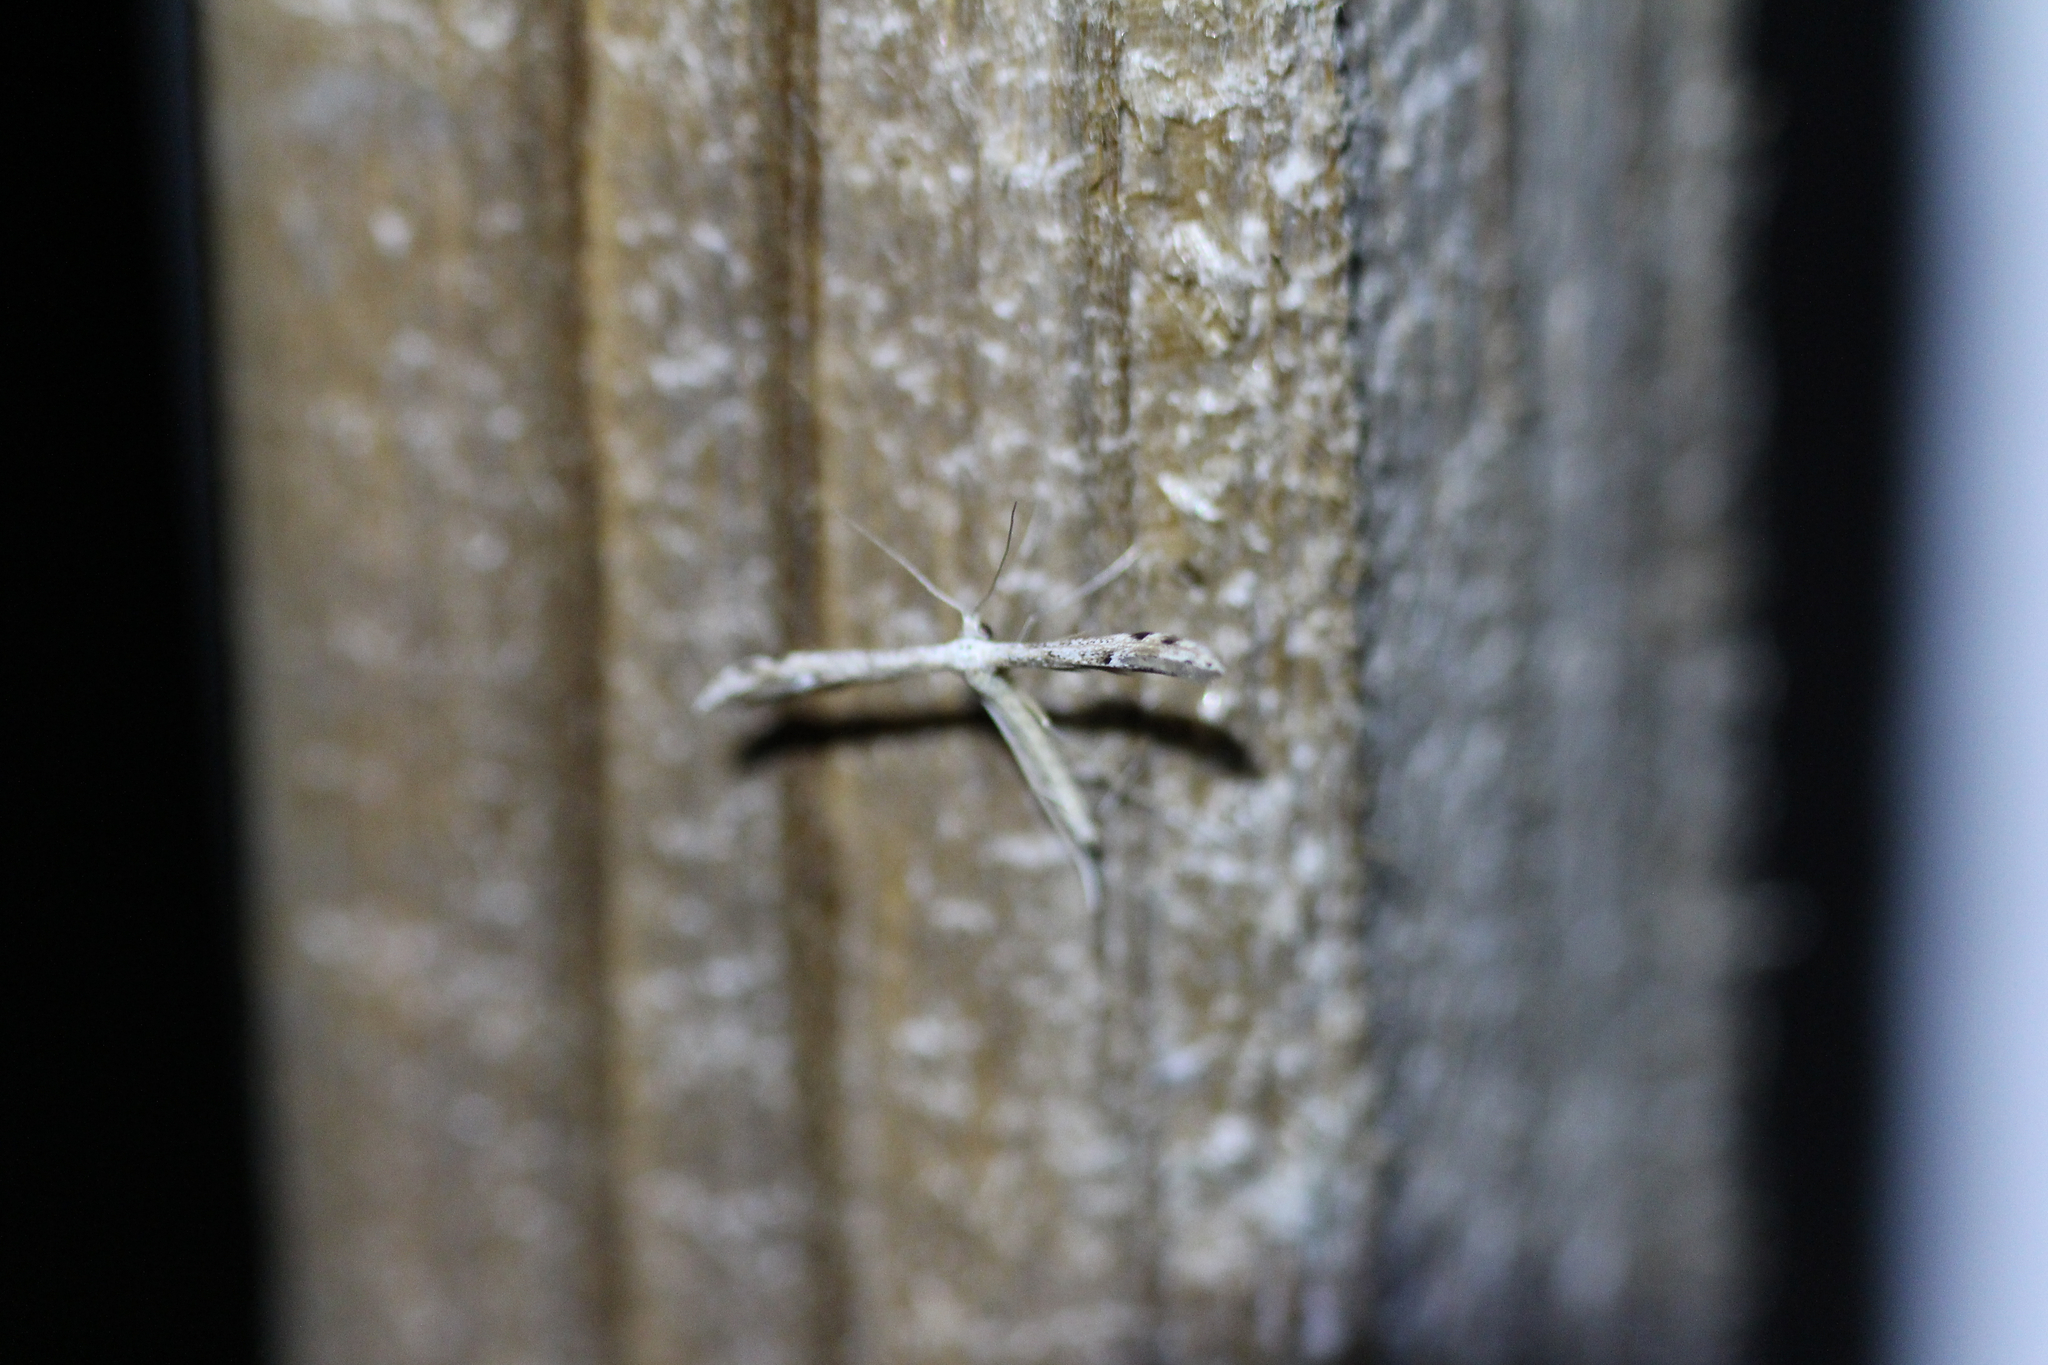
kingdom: Animalia
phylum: Arthropoda
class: Insecta
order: Lepidoptera
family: Pterophoridae
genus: Pselnophorus
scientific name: Pselnophorus belfragei
